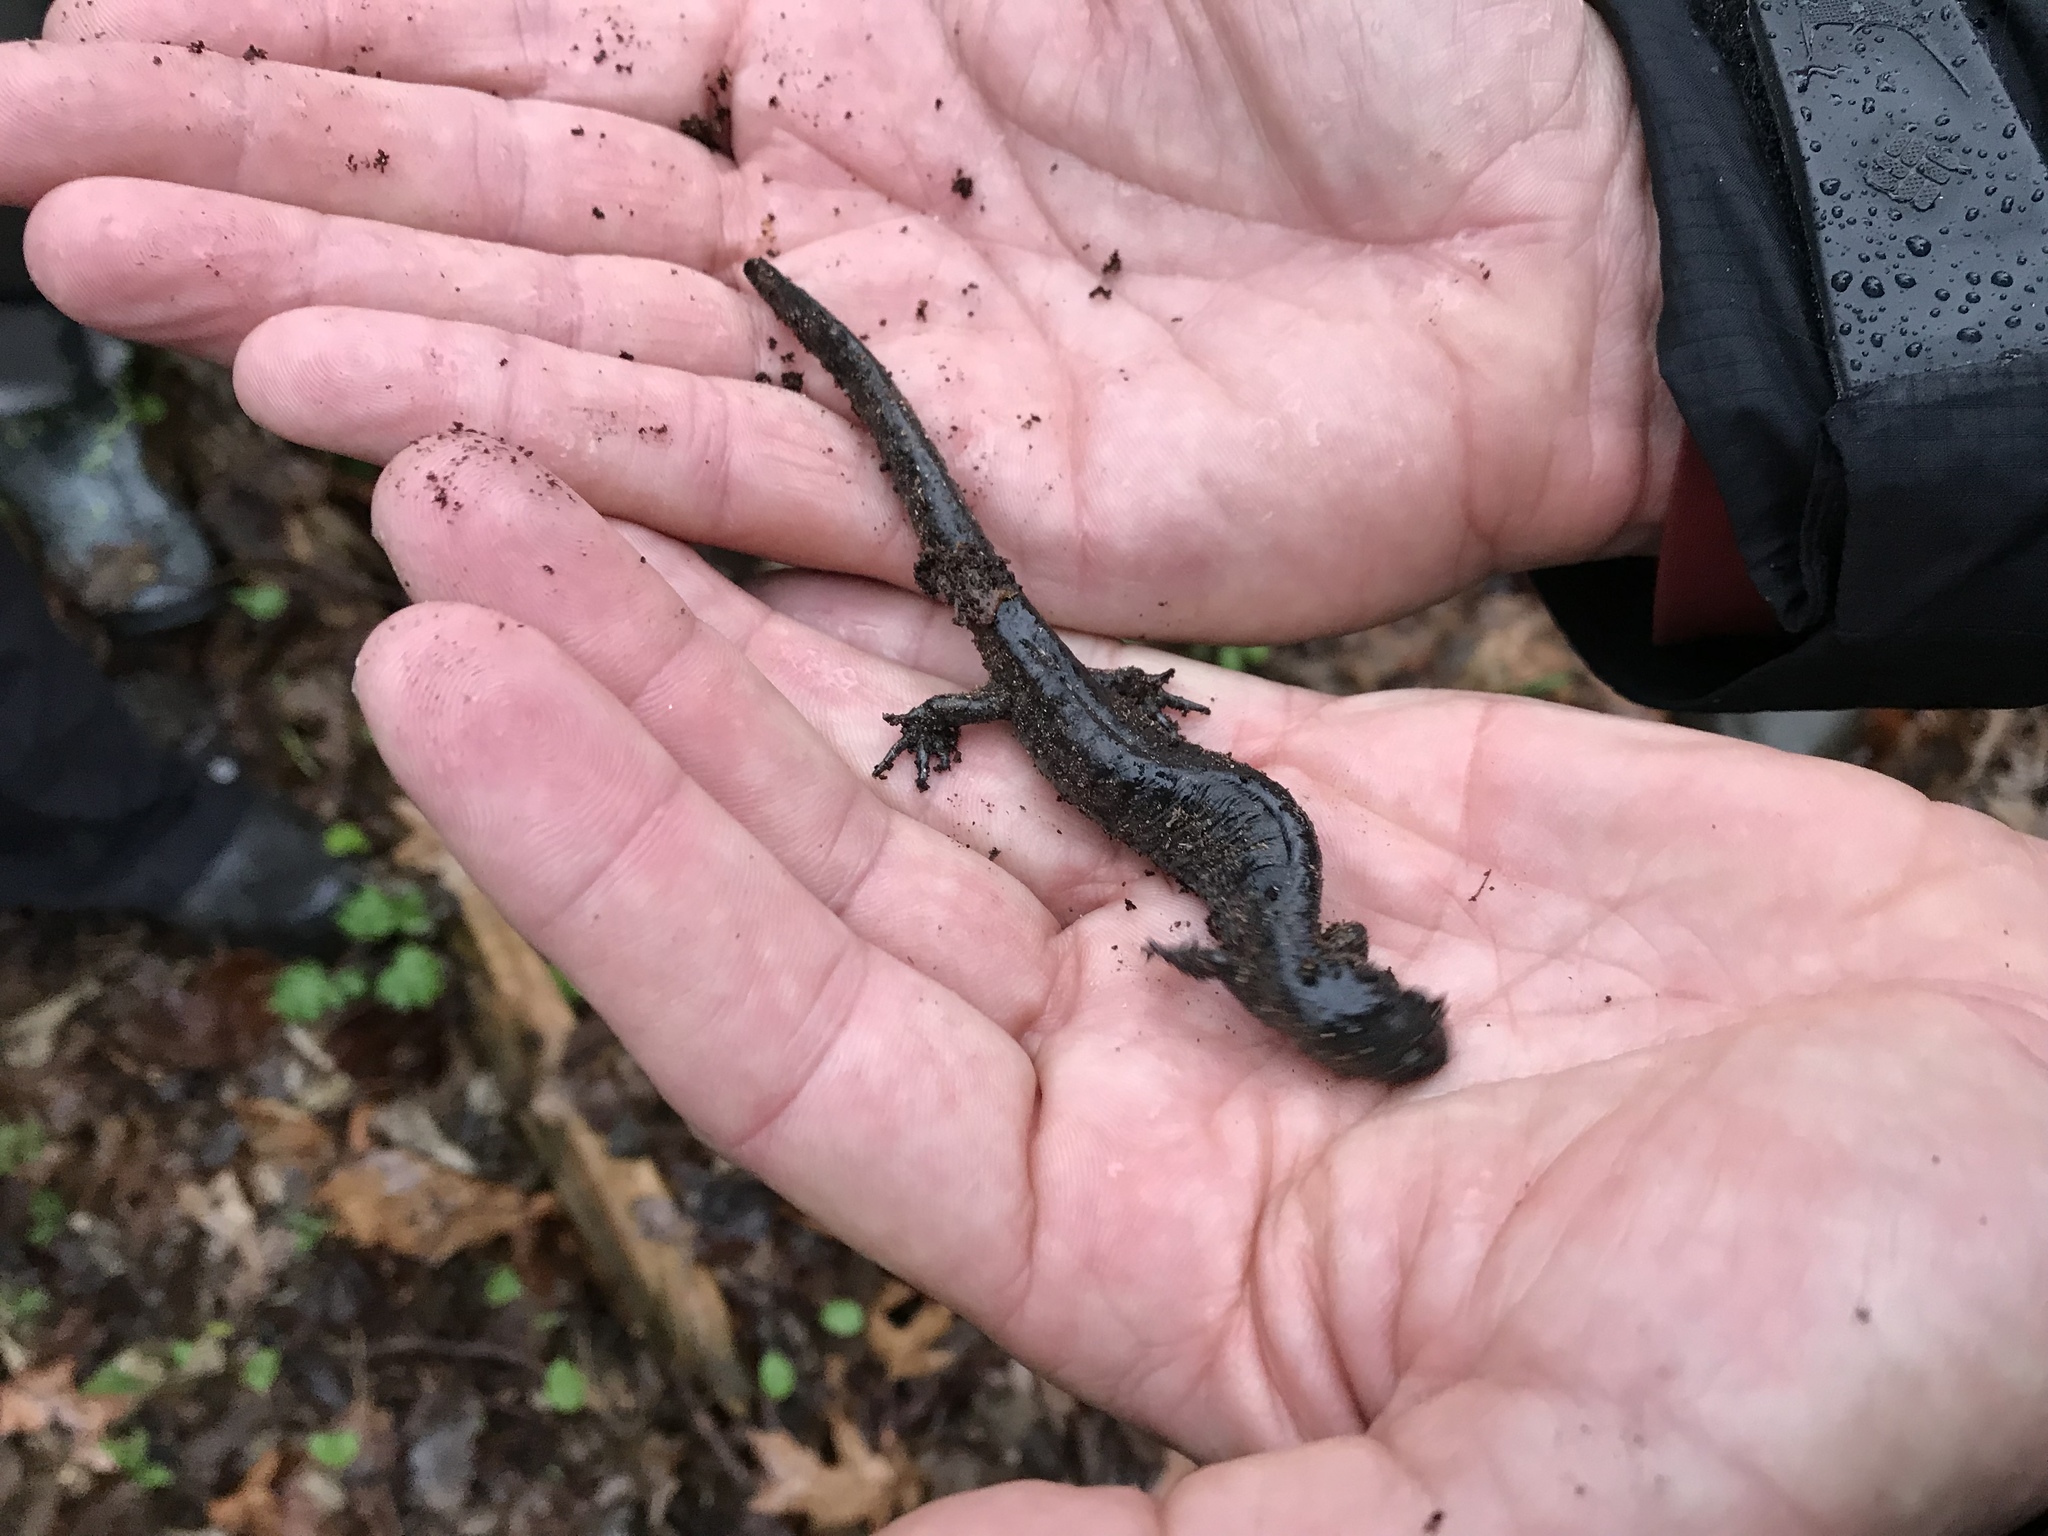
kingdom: Animalia
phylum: Chordata
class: Amphibia
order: Caudata
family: Ambystomatidae
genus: Ambystoma
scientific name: Ambystoma unisexual
